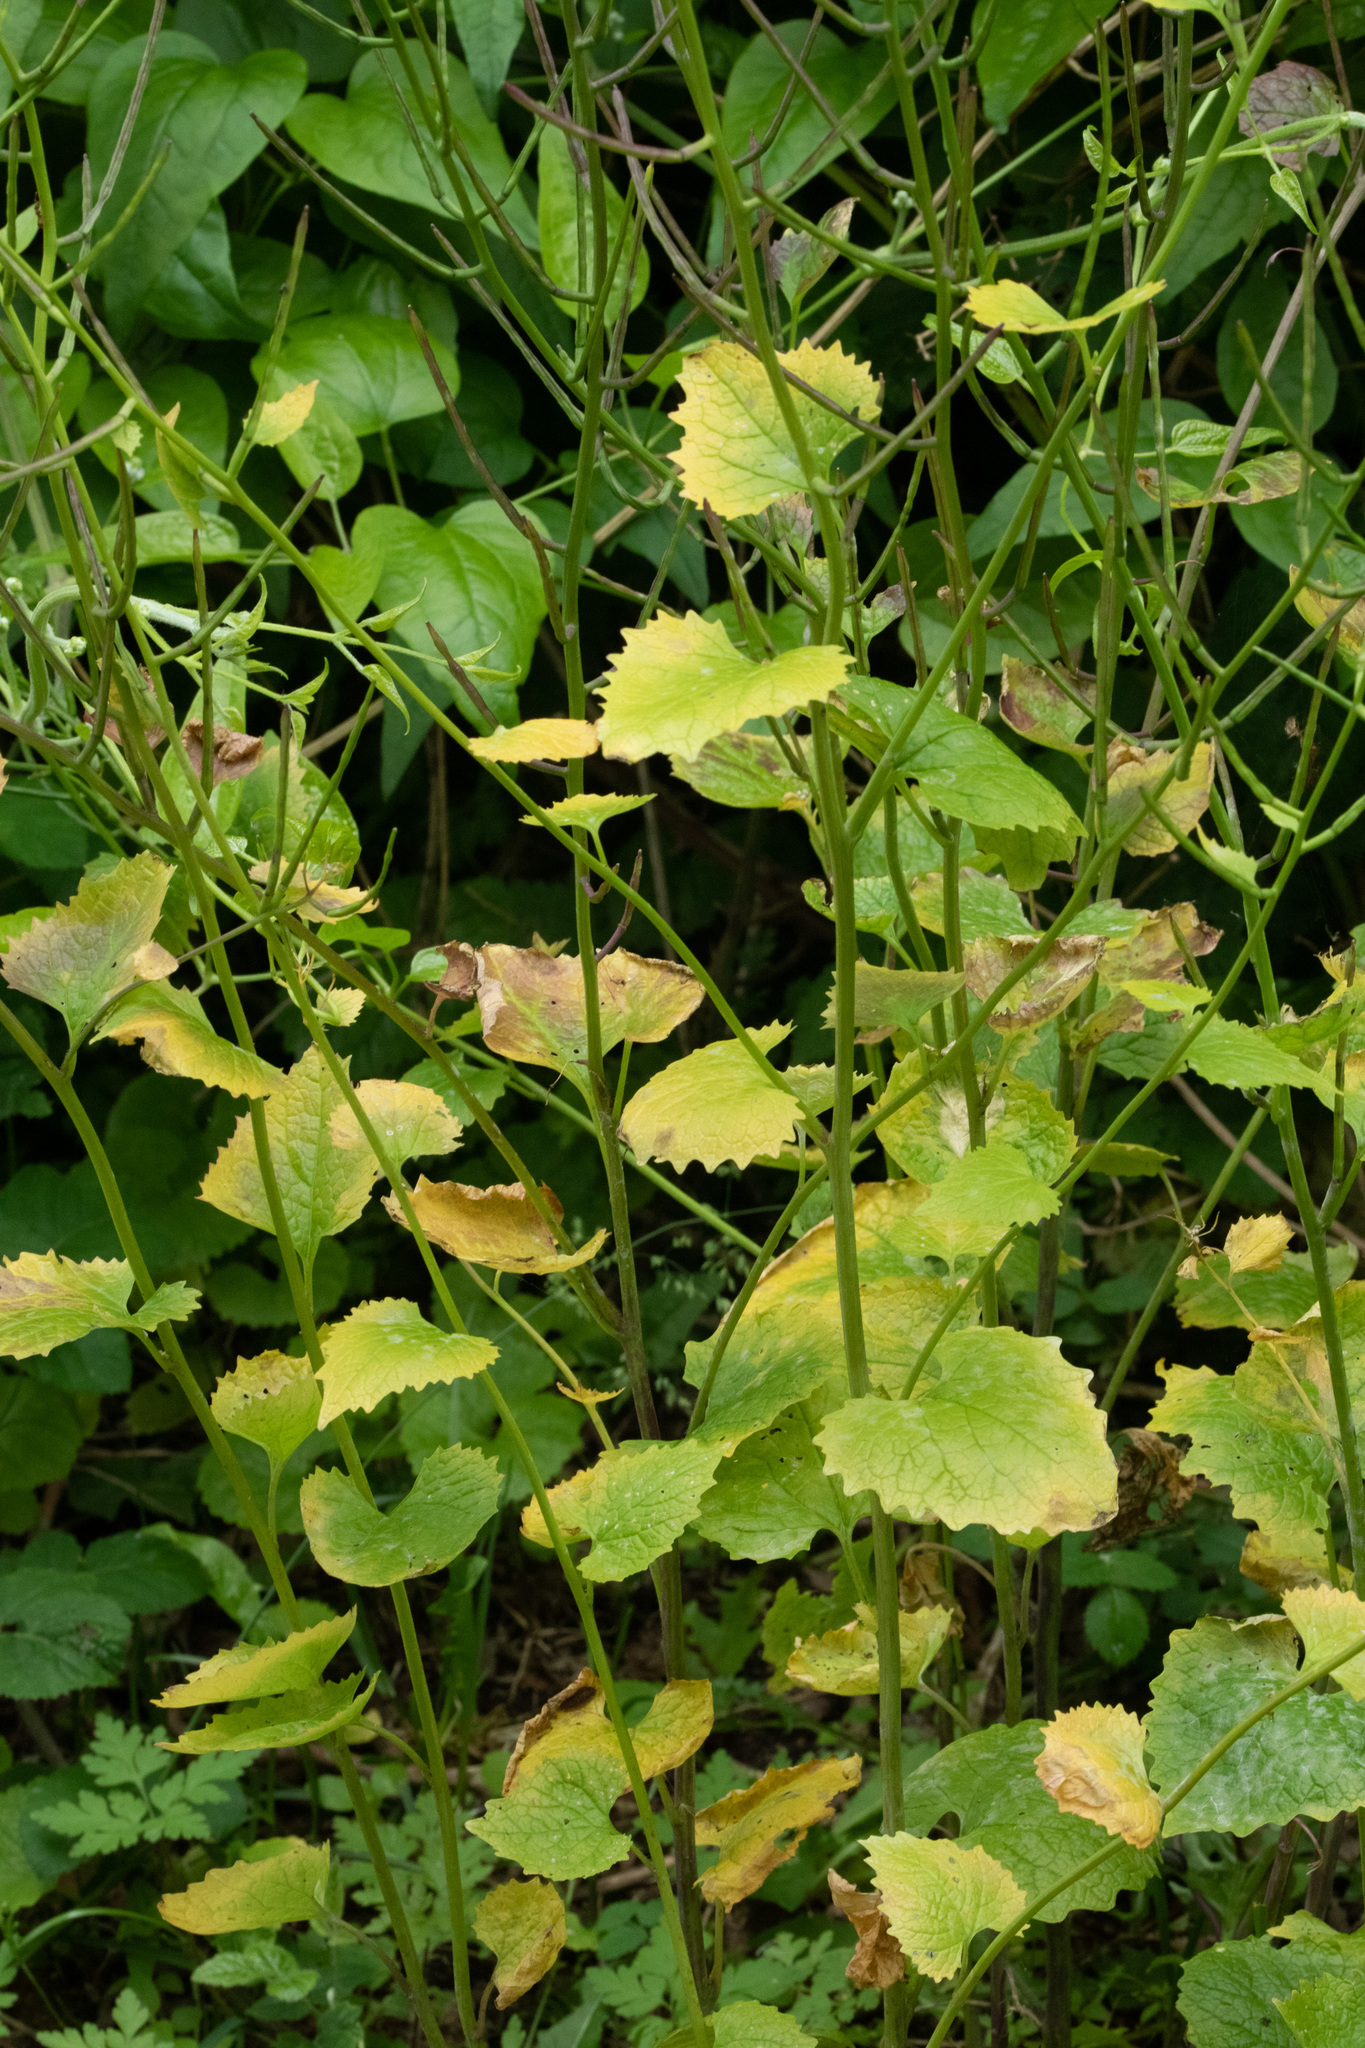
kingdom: Plantae
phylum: Tracheophyta
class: Magnoliopsida
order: Brassicales
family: Brassicaceae
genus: Alliaria
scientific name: Alliaria petiolata
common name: Garlic mustard
